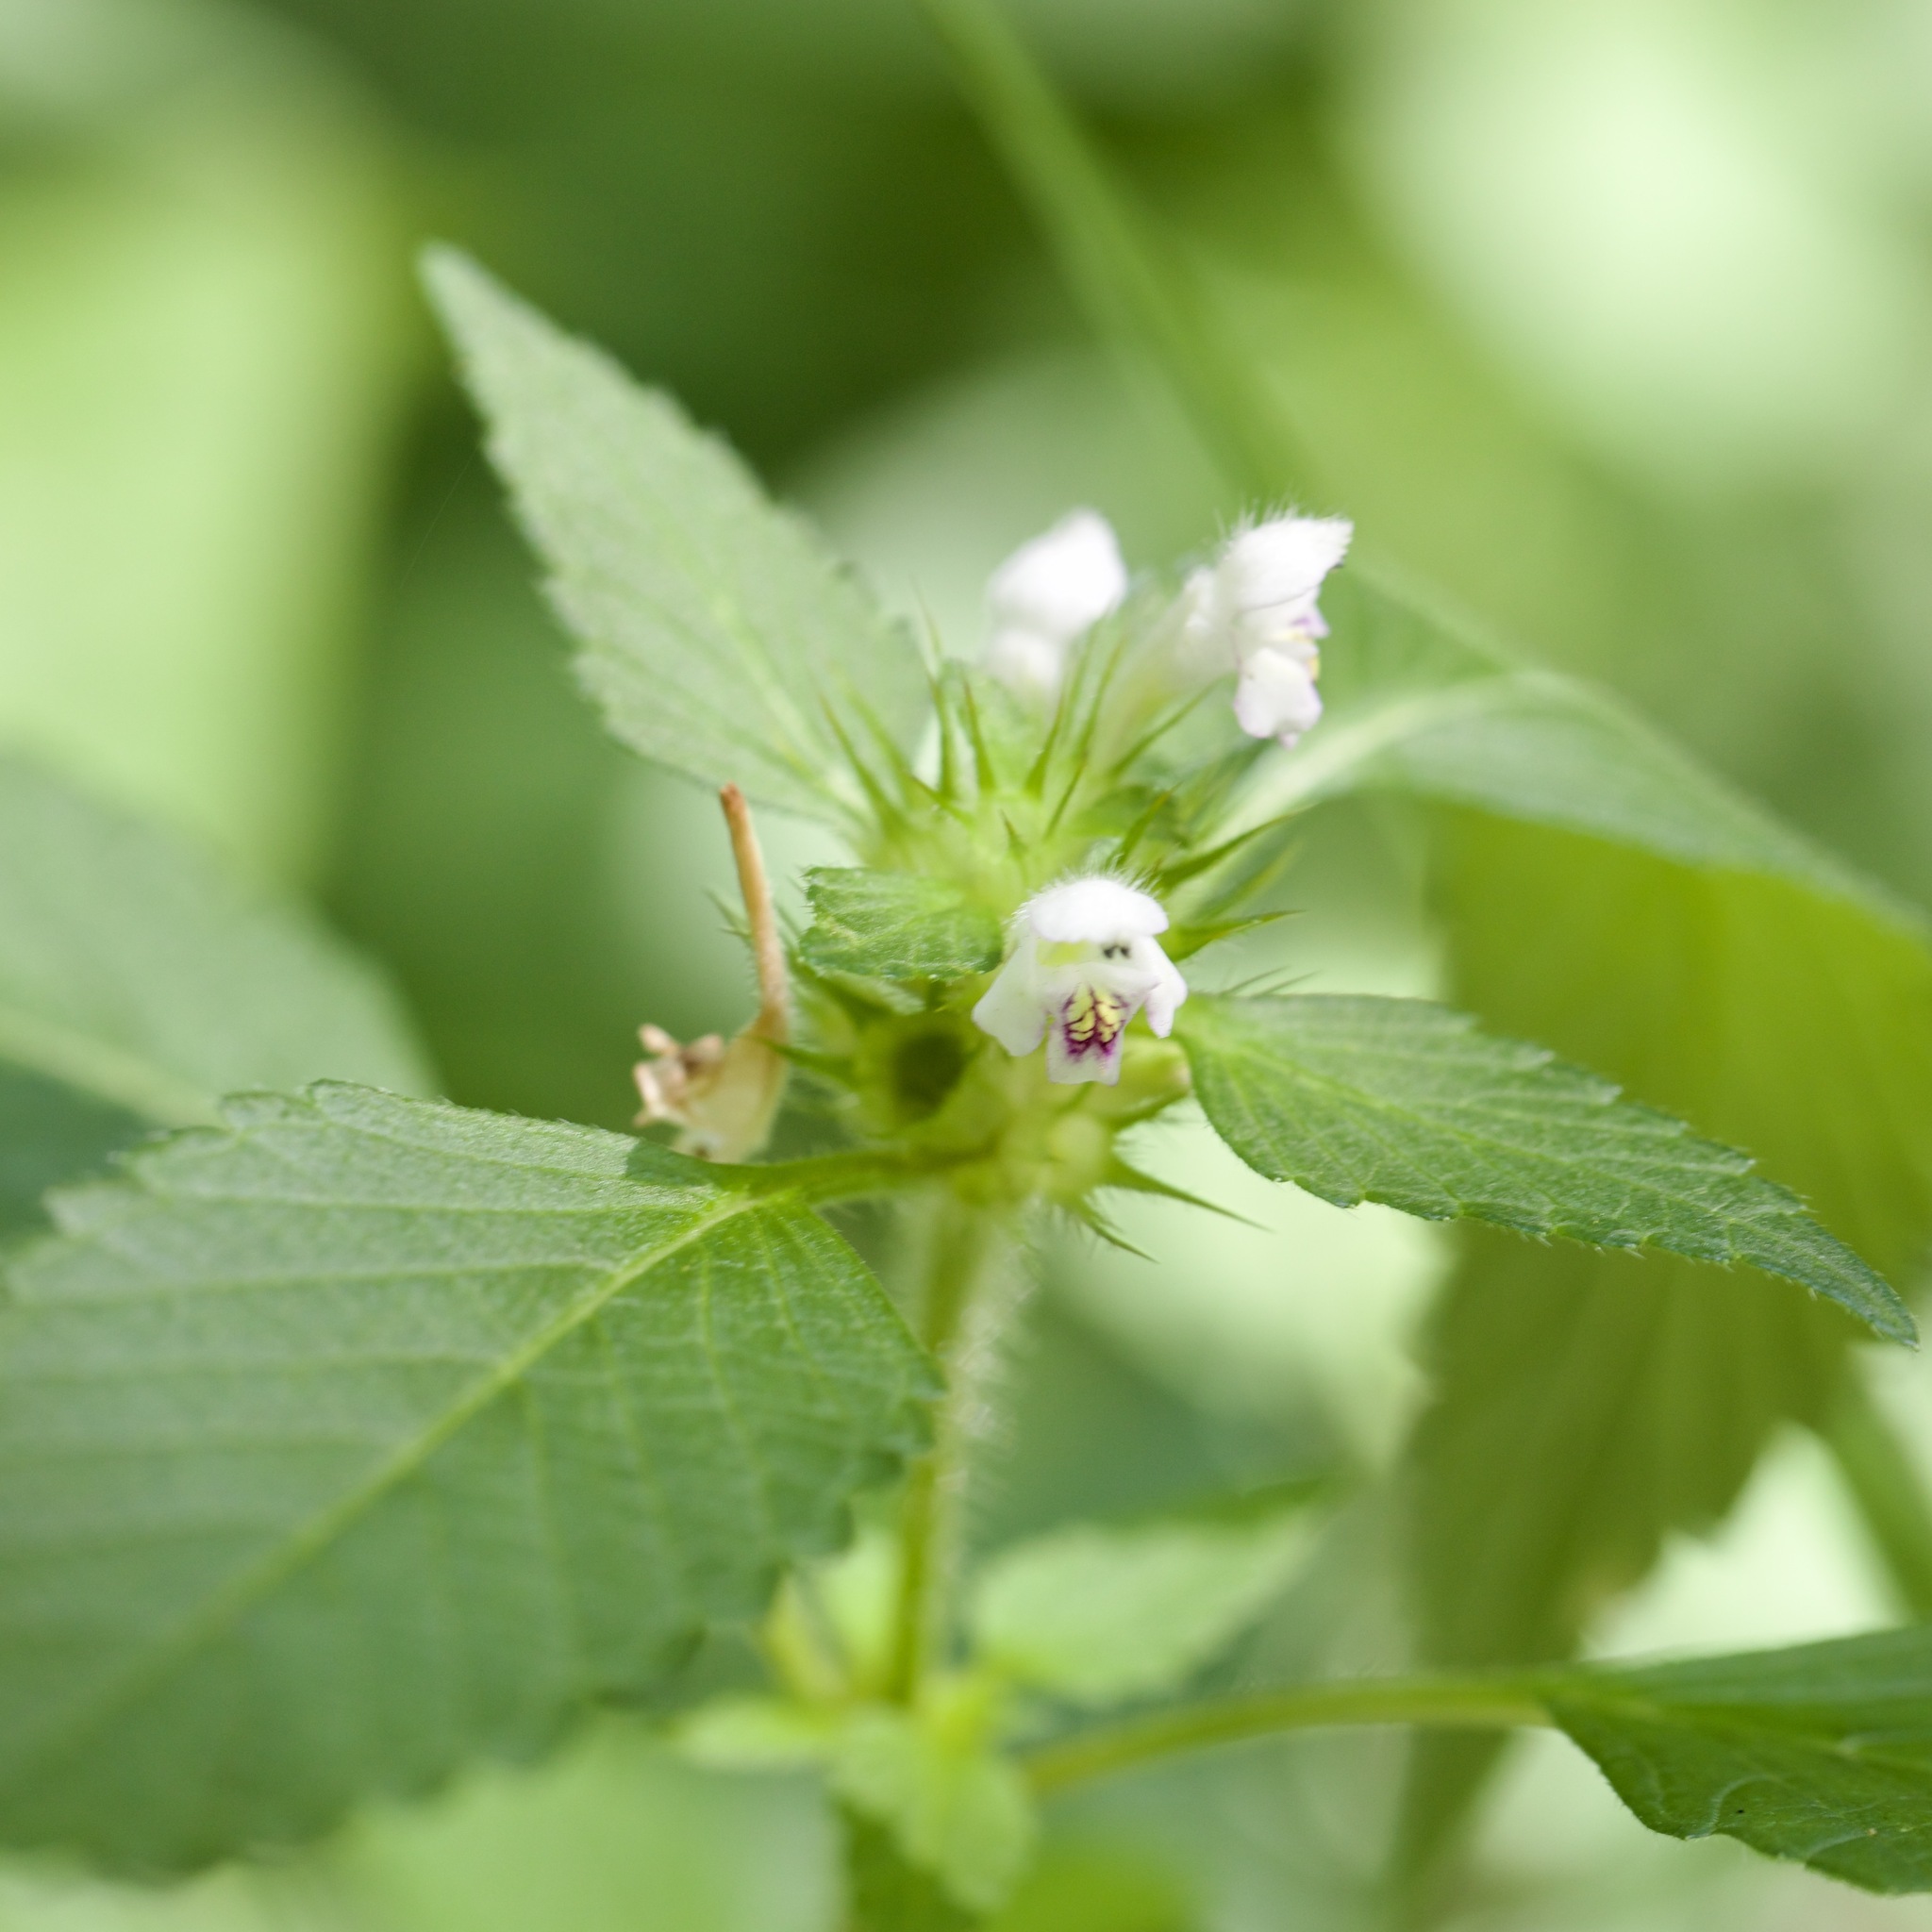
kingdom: Plantae
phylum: Tracheophyta
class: Magnoliopsida
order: Lamiales
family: Lamiaceae
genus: Galeopsis
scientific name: Galeopsis tetrahit
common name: Common hemp-nettle
